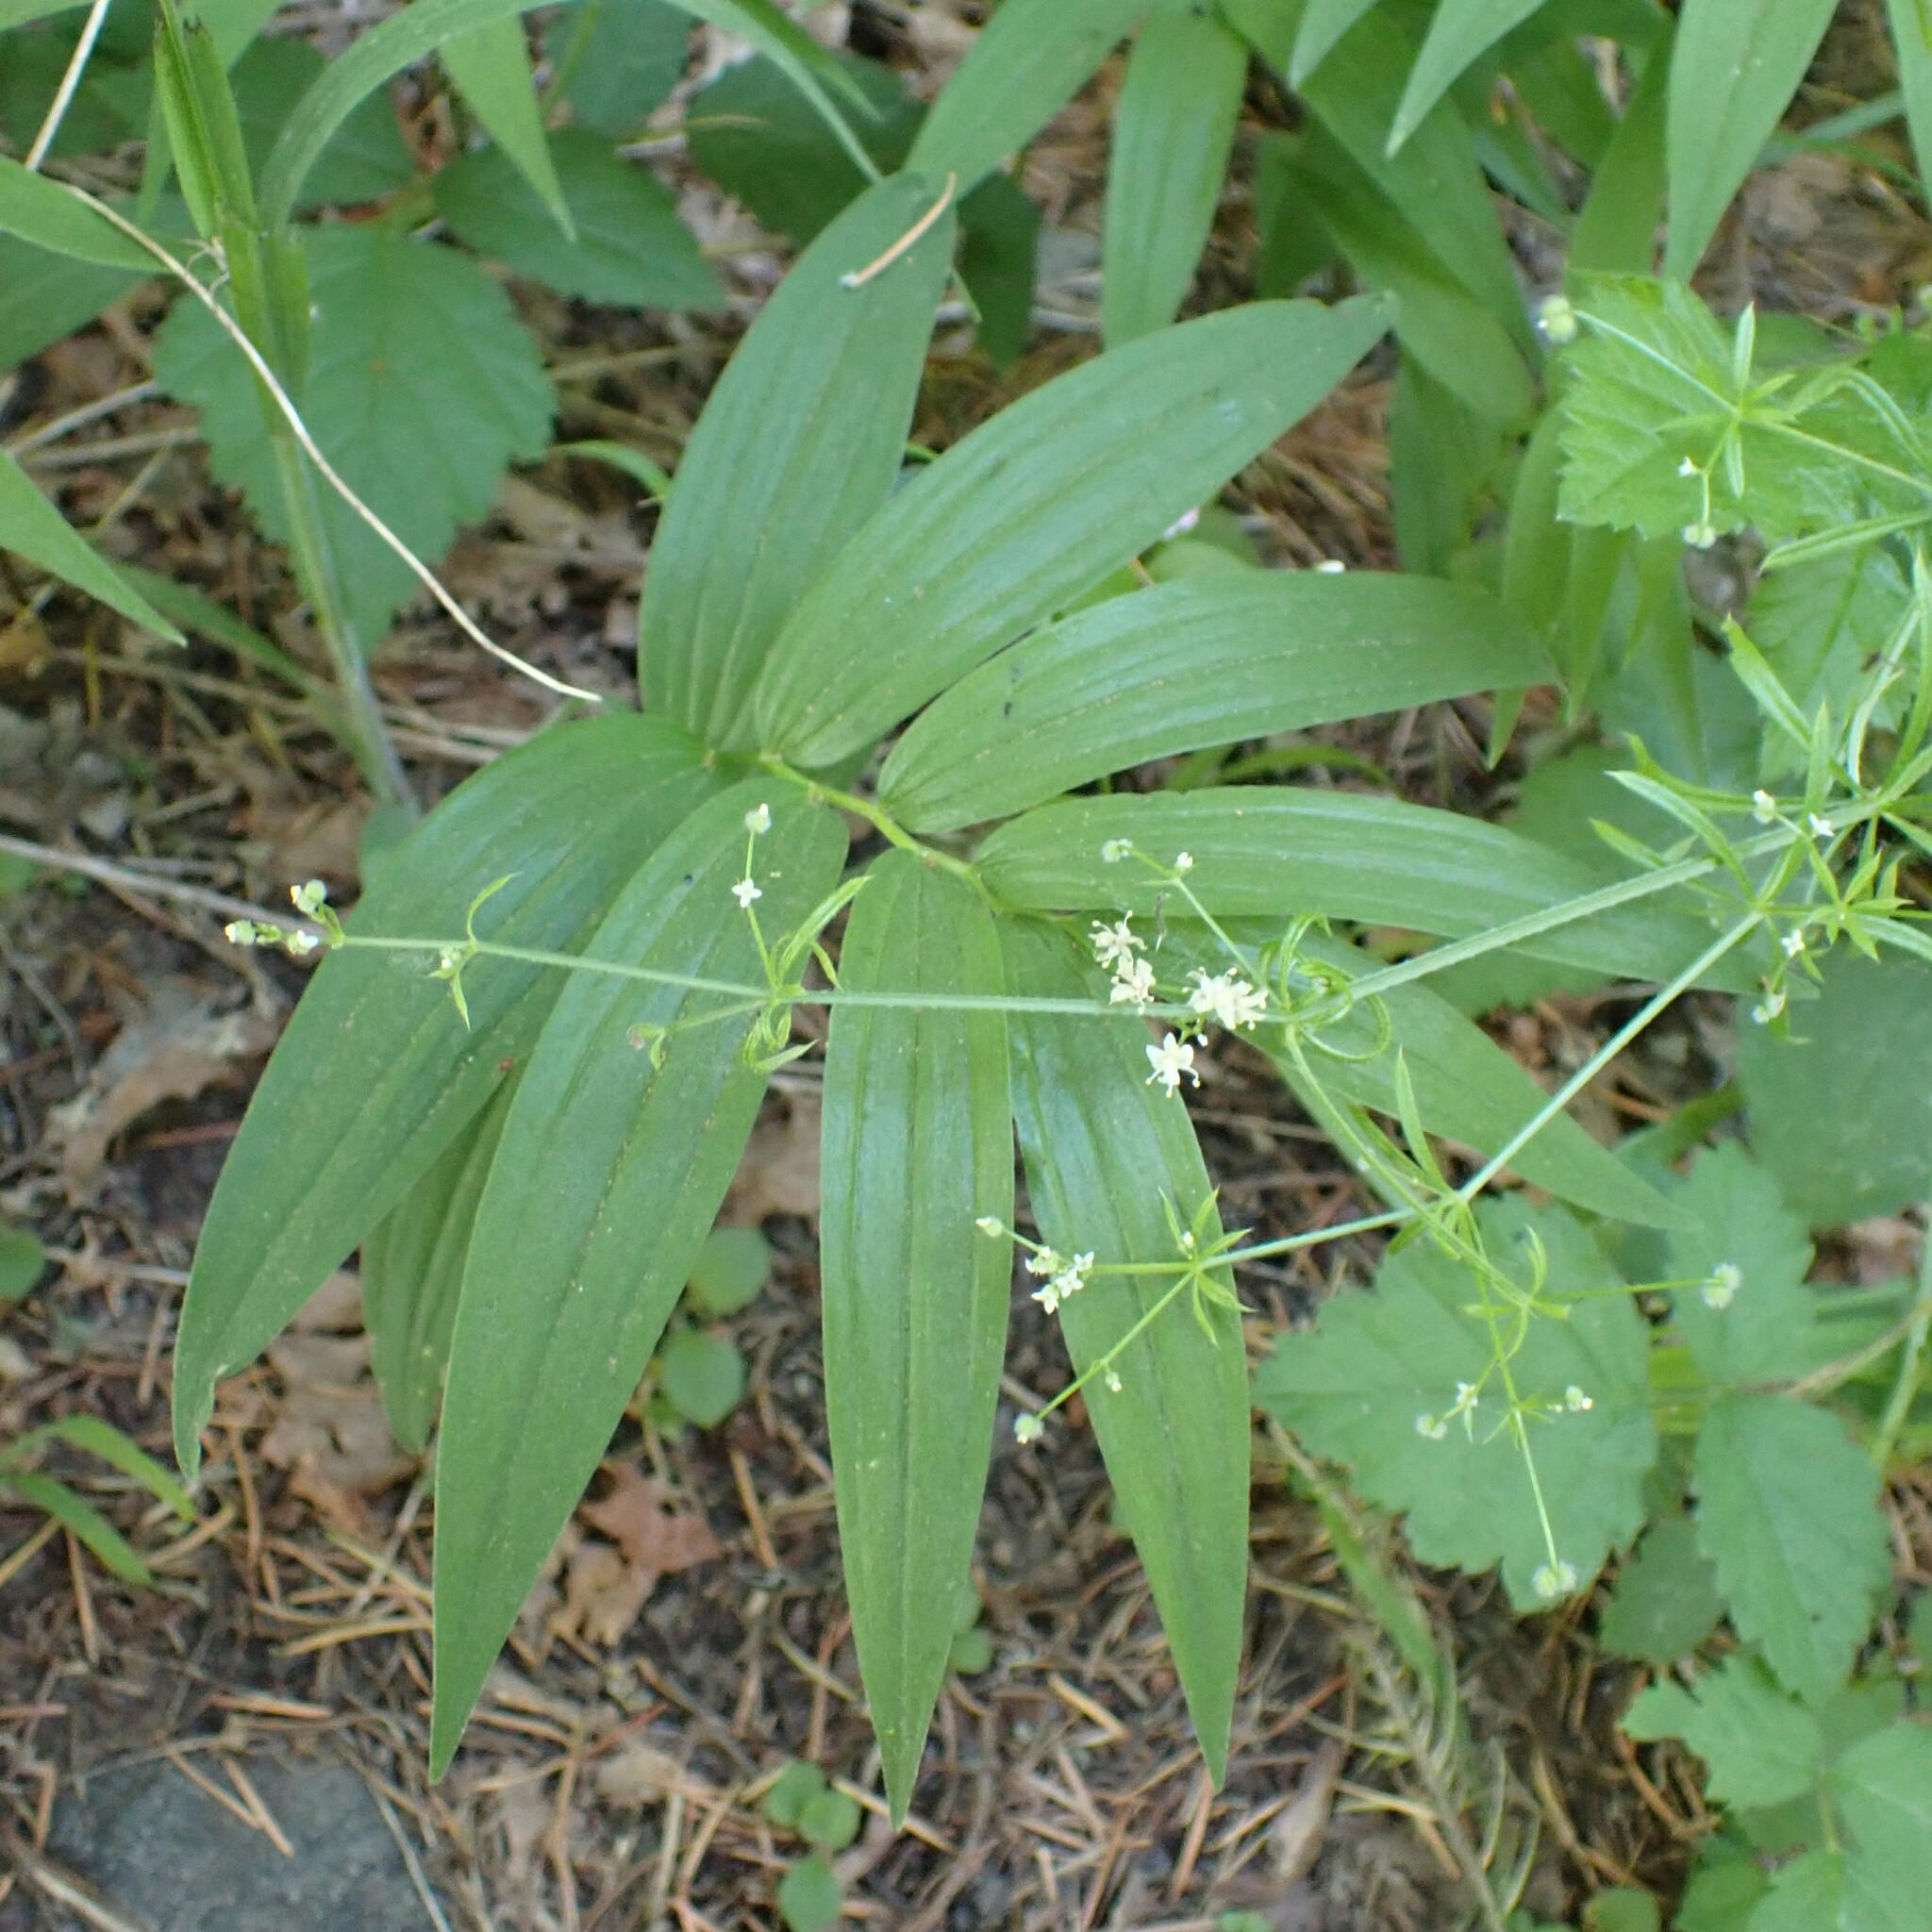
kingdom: Plantae
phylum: Tracheophyta
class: Liliopsida
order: Asparagales
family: Asparagaceae
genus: Maianthemum
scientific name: Maianthemum stellatum
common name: Little false solomon's seal
